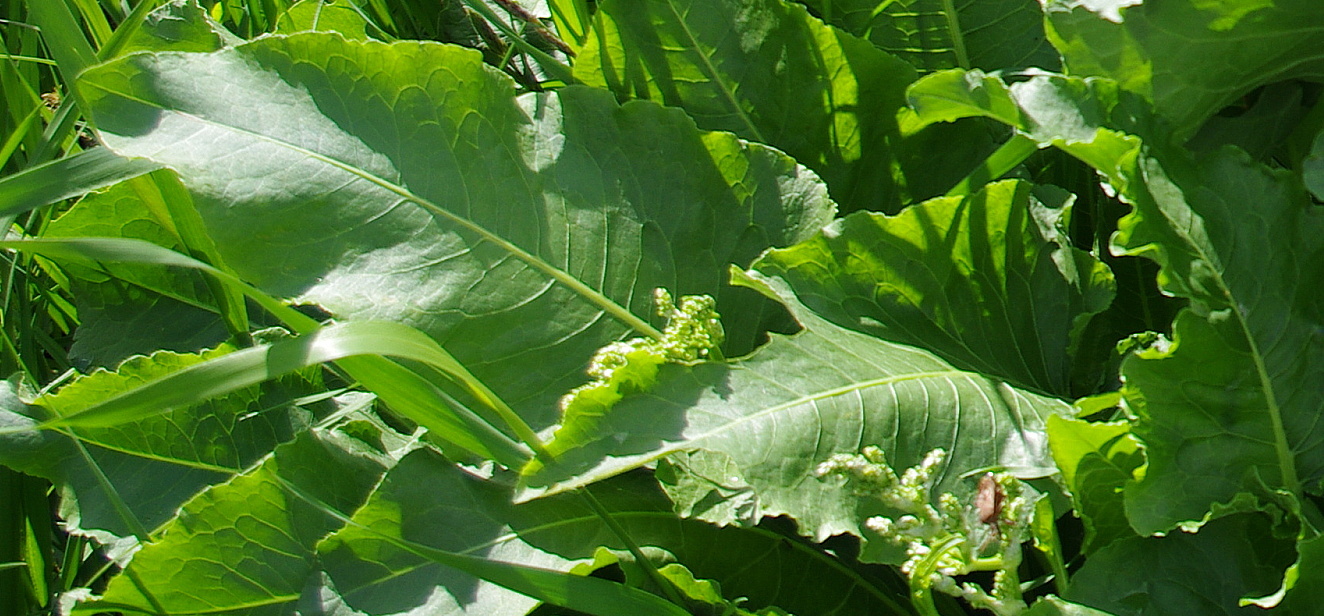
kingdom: Plantae
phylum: Tracheophyta
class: Magnoliopsida
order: Caryophyllales
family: Polygonaceae
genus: Rumex
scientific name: Rumex confertus
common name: Russian dock
